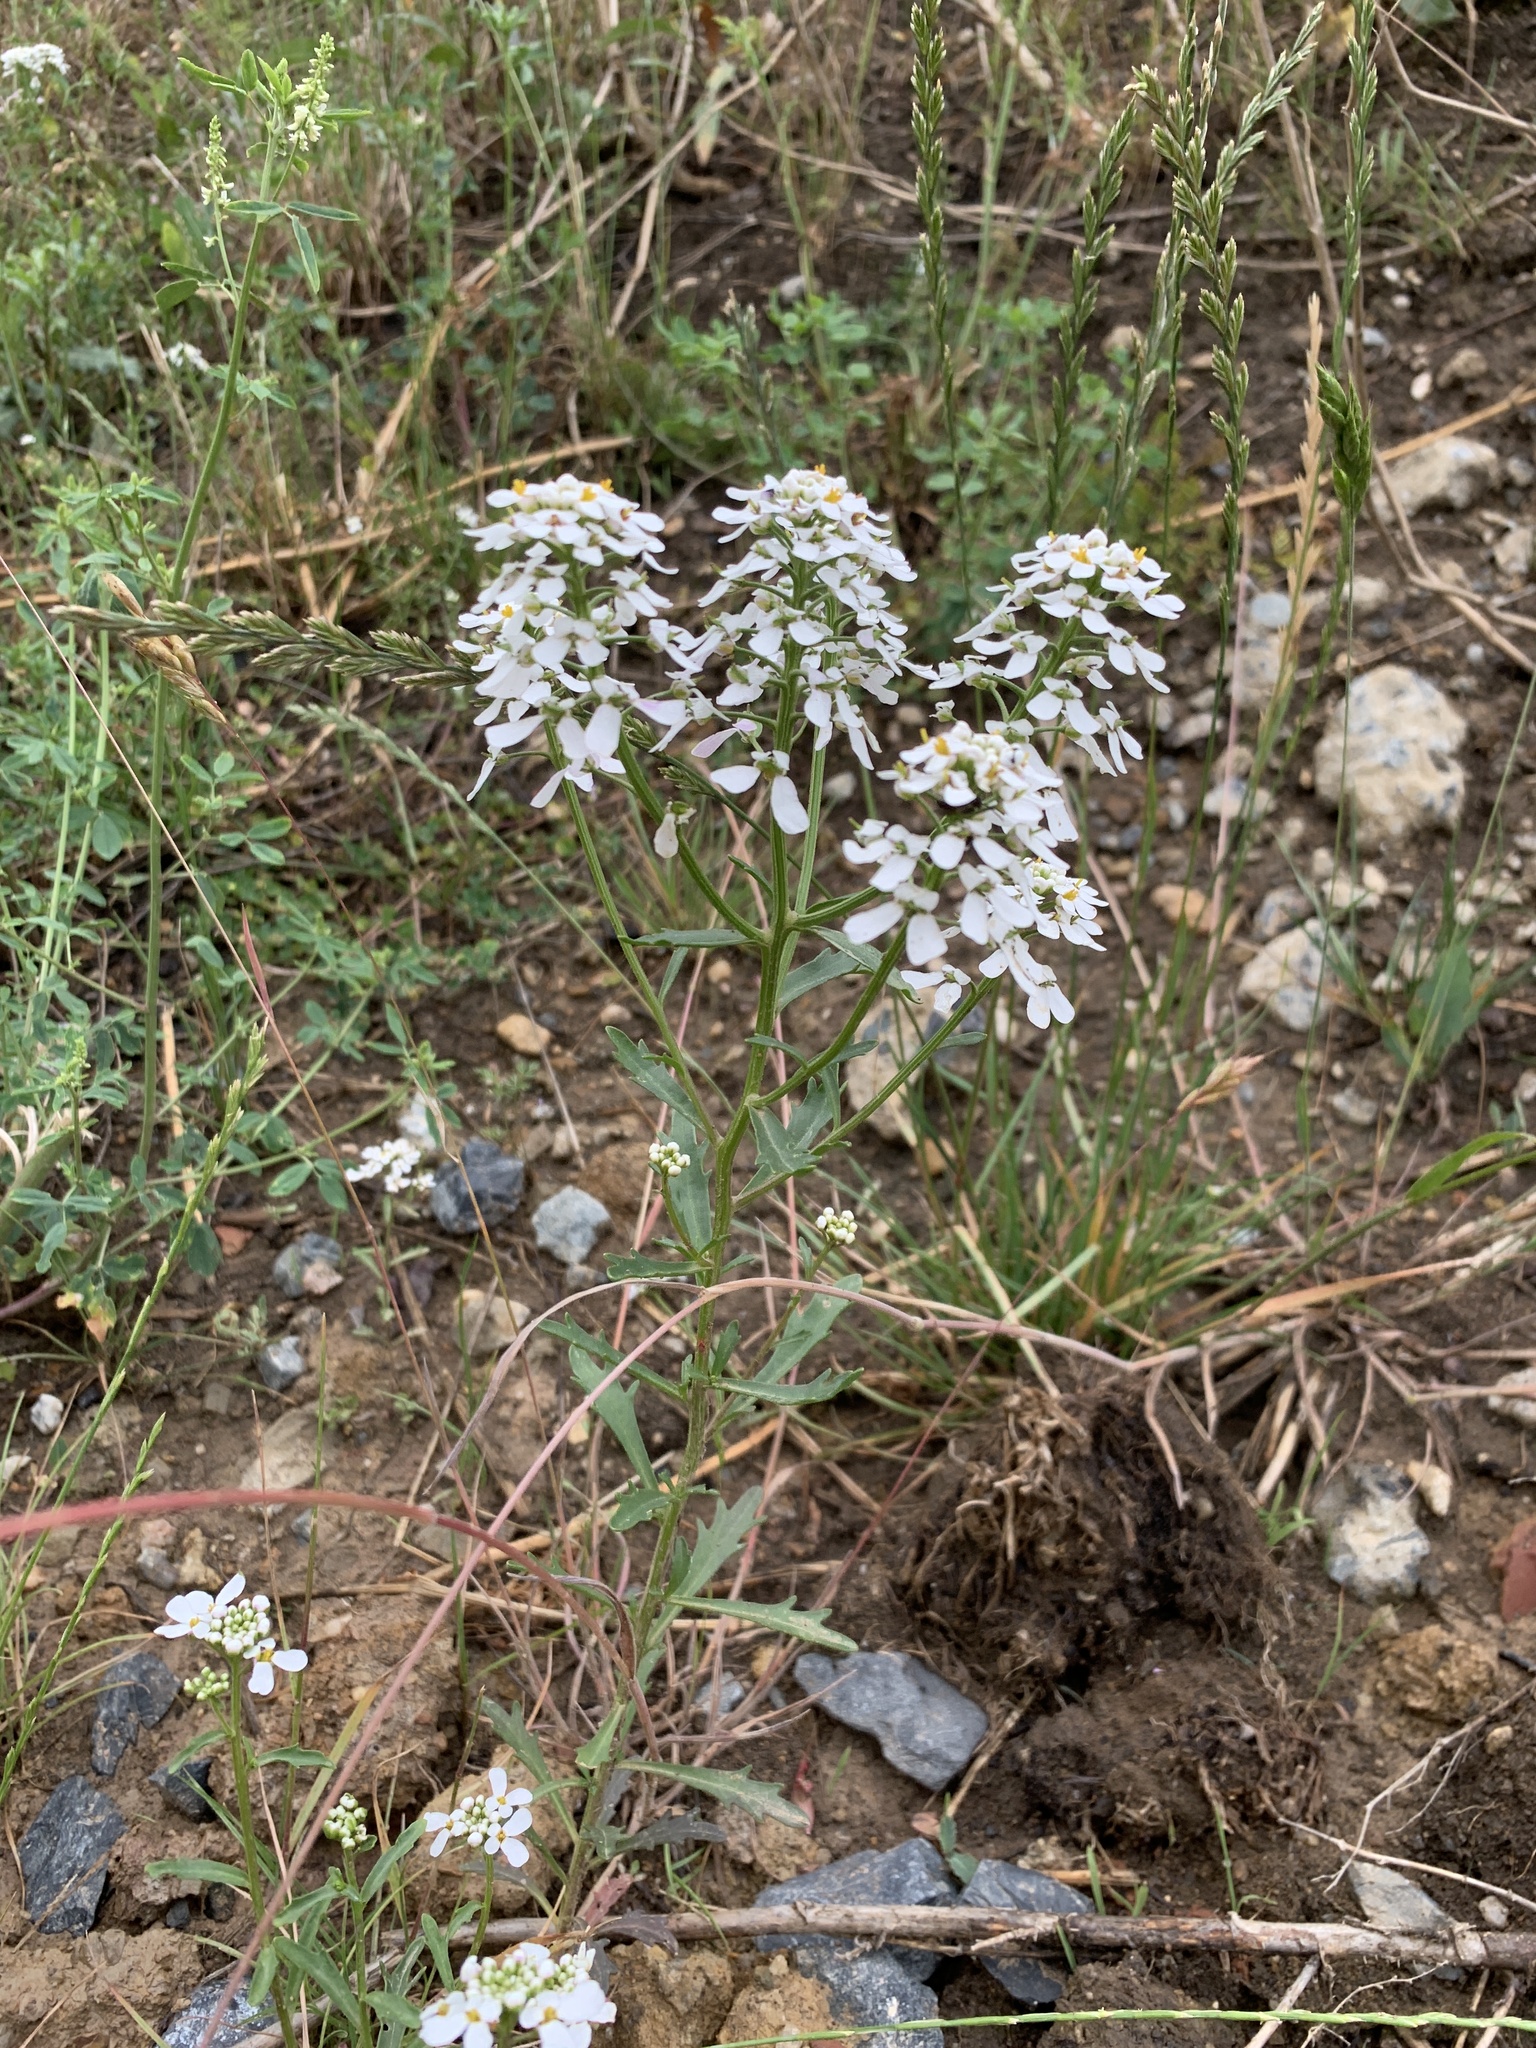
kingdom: Plantae
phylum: Tracheophyta
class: Magnoliopsida
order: Brassicales
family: Brassicaceae
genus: Iberis
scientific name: Iberis amara
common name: Annual candytuft
